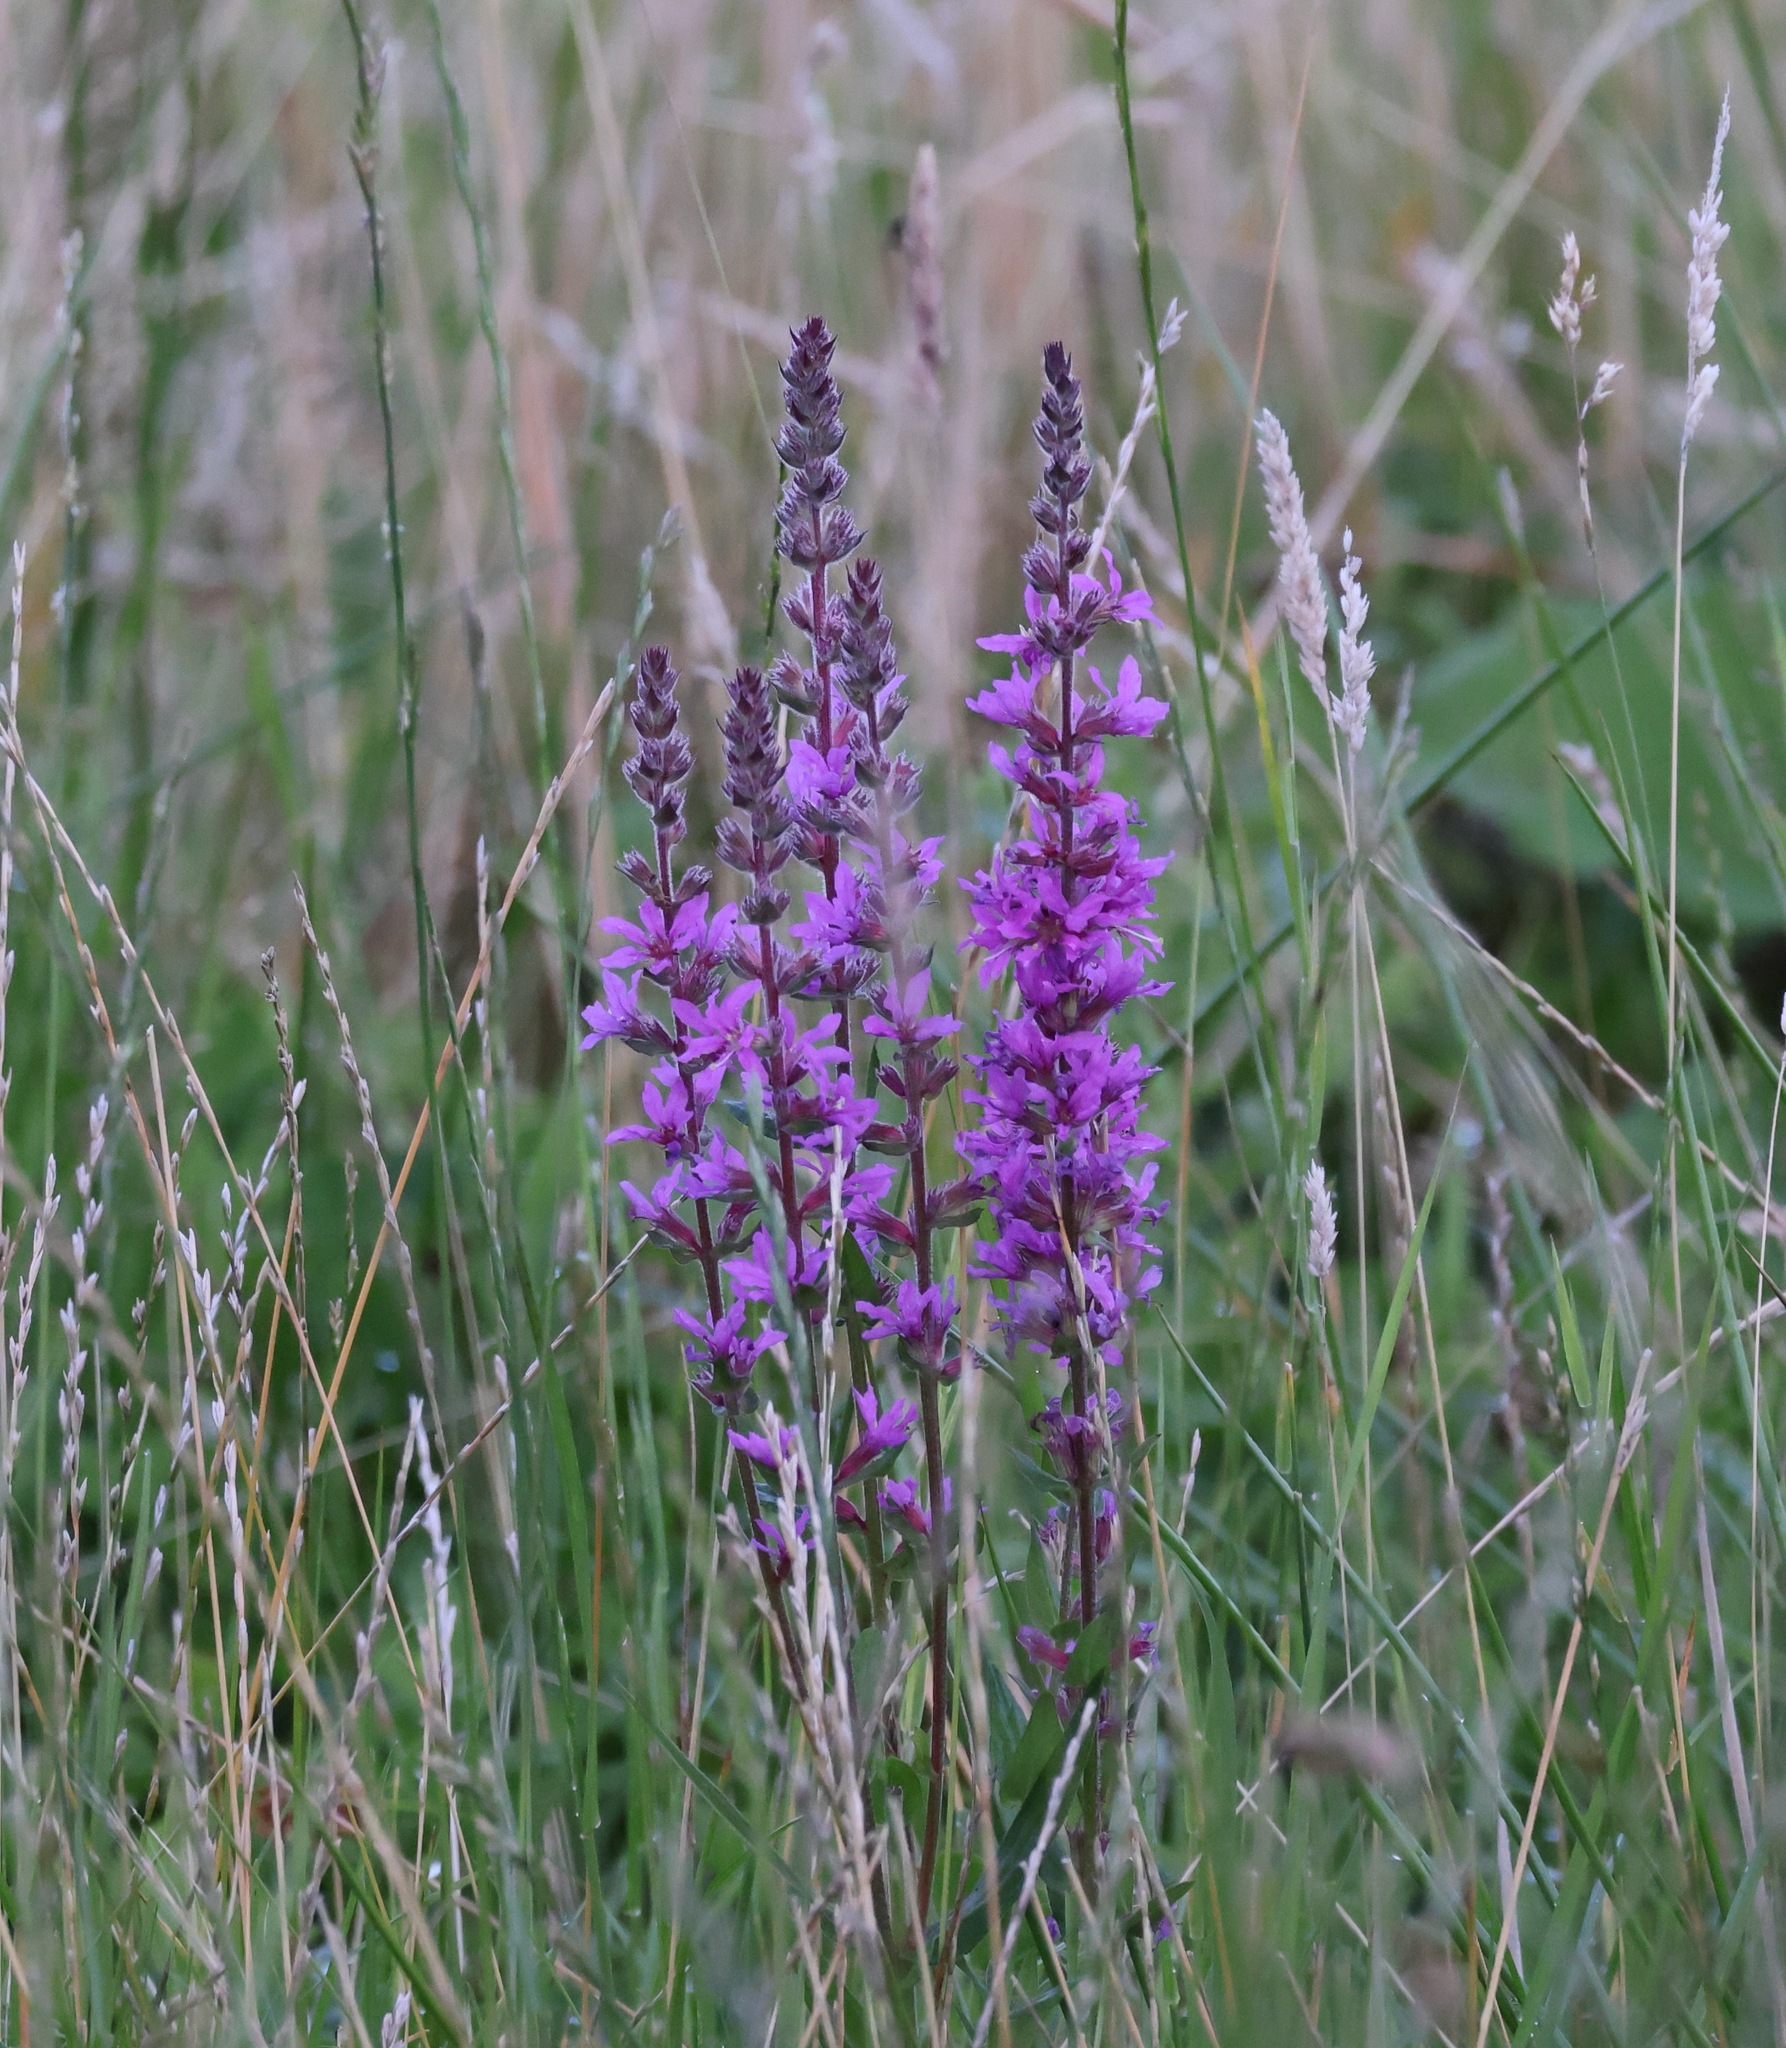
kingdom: Plantae
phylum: Tracheophyta
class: Magnoliopsida
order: Myrtales
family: Lythraceae
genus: Lythrum
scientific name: Lythrum salicaria
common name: Purple loosestrife
